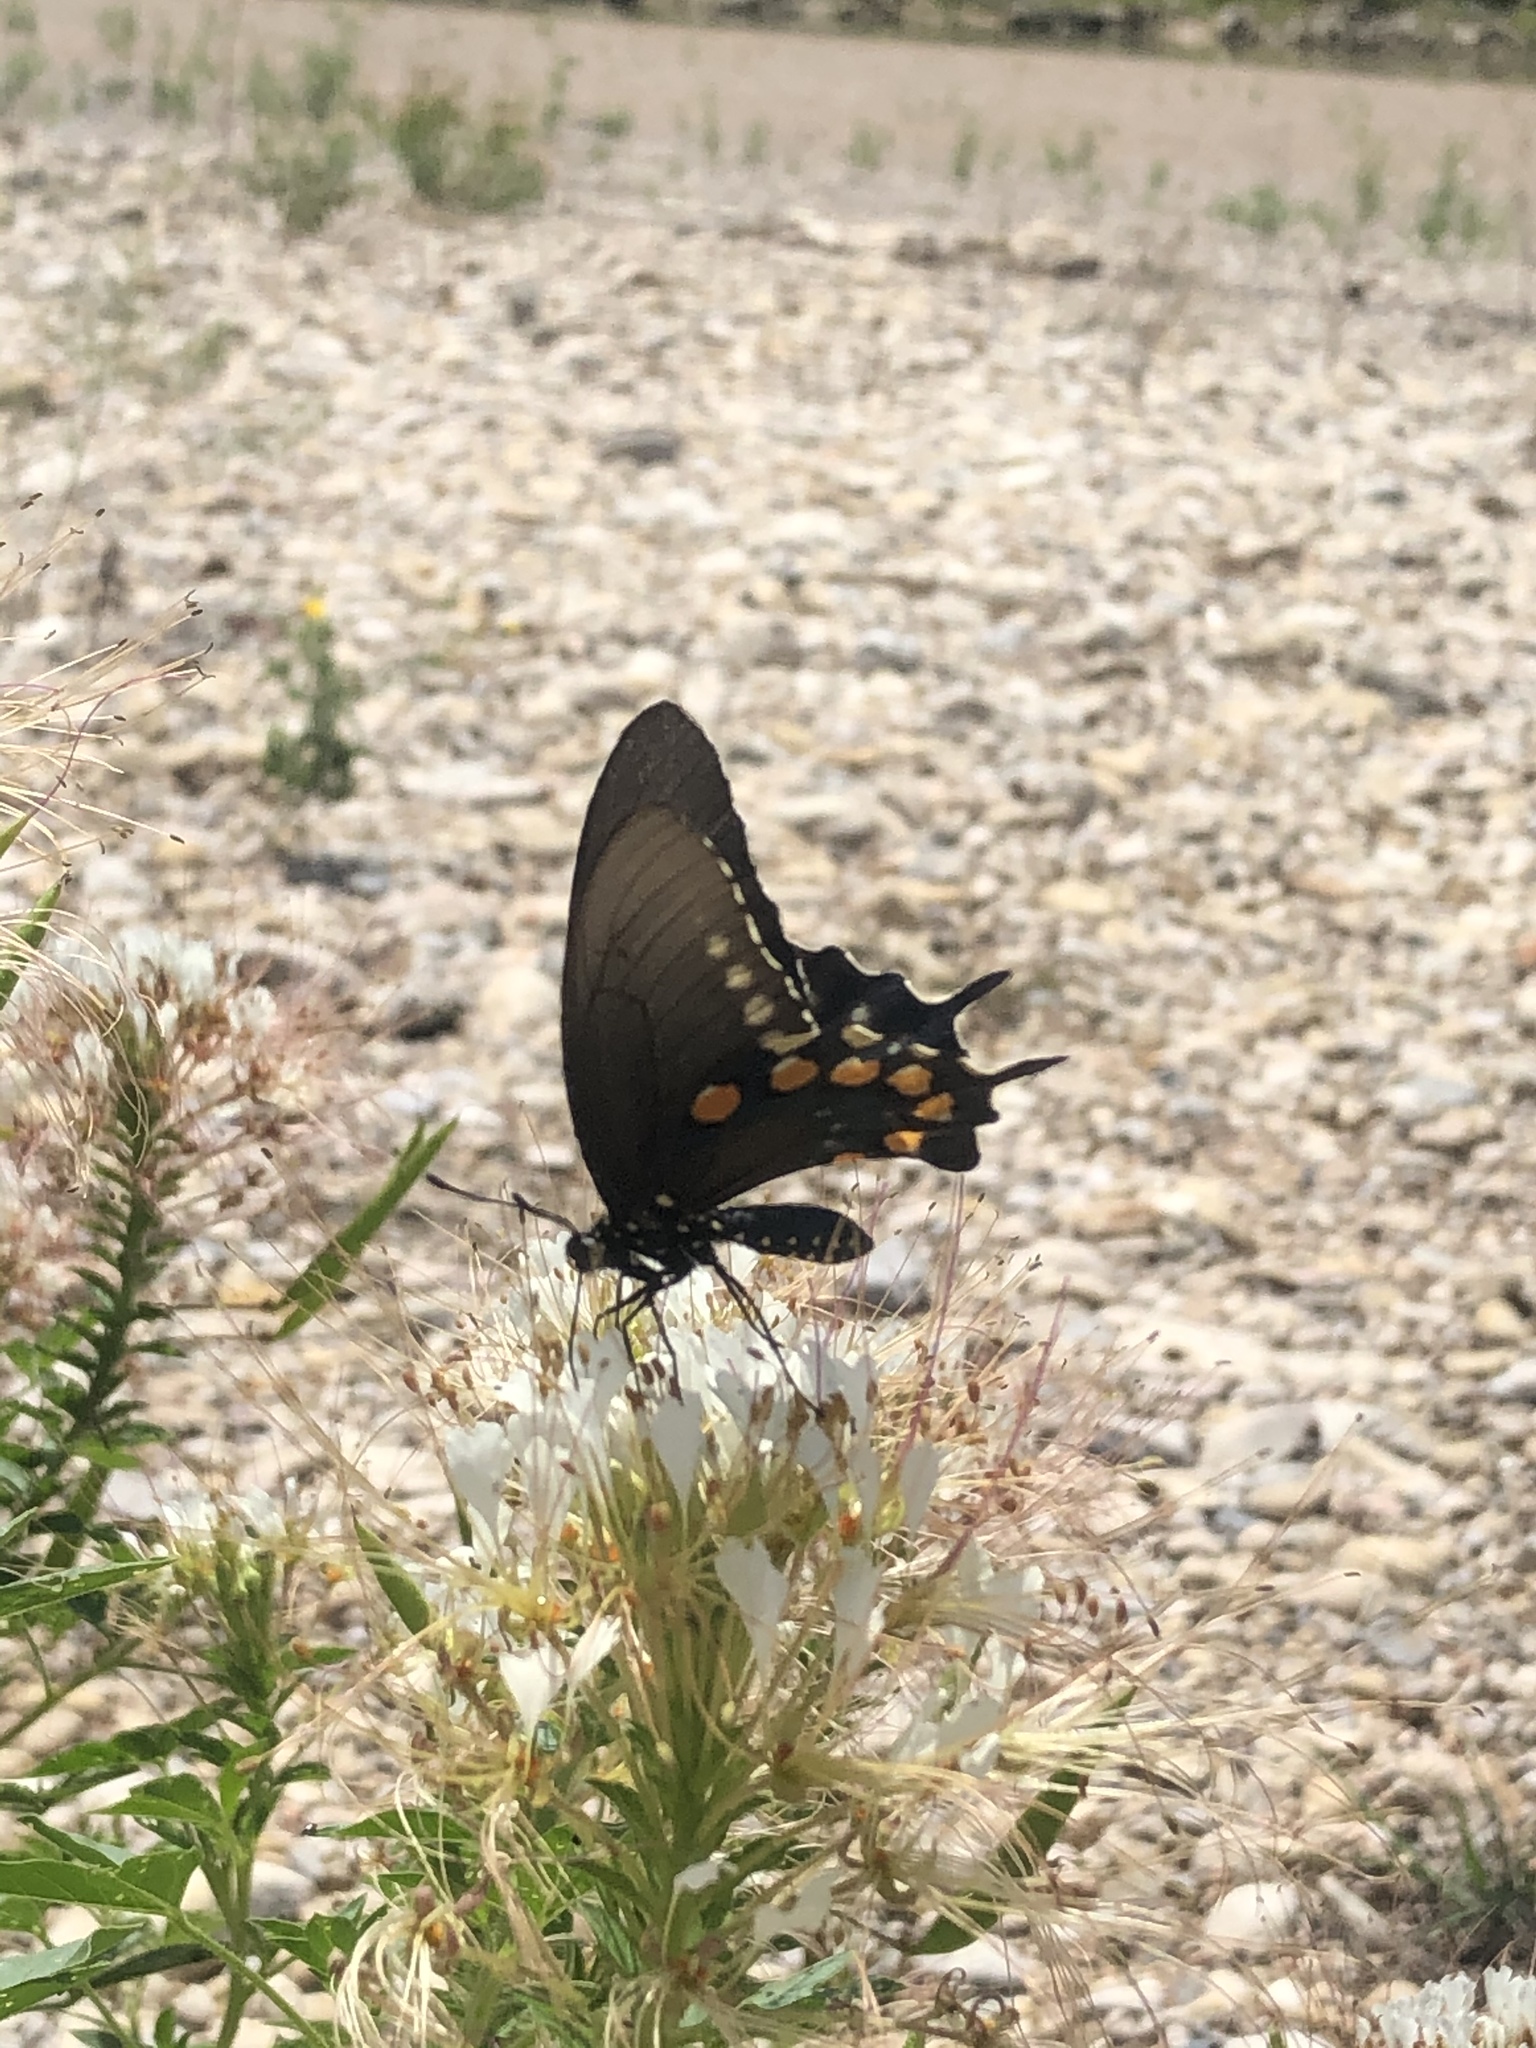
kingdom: Animalia
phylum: Arthropoda
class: Insecta
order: Lepidoptera
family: Papilionidae
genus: Battus
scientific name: Battus philenor
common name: Pipevine swallowtail
